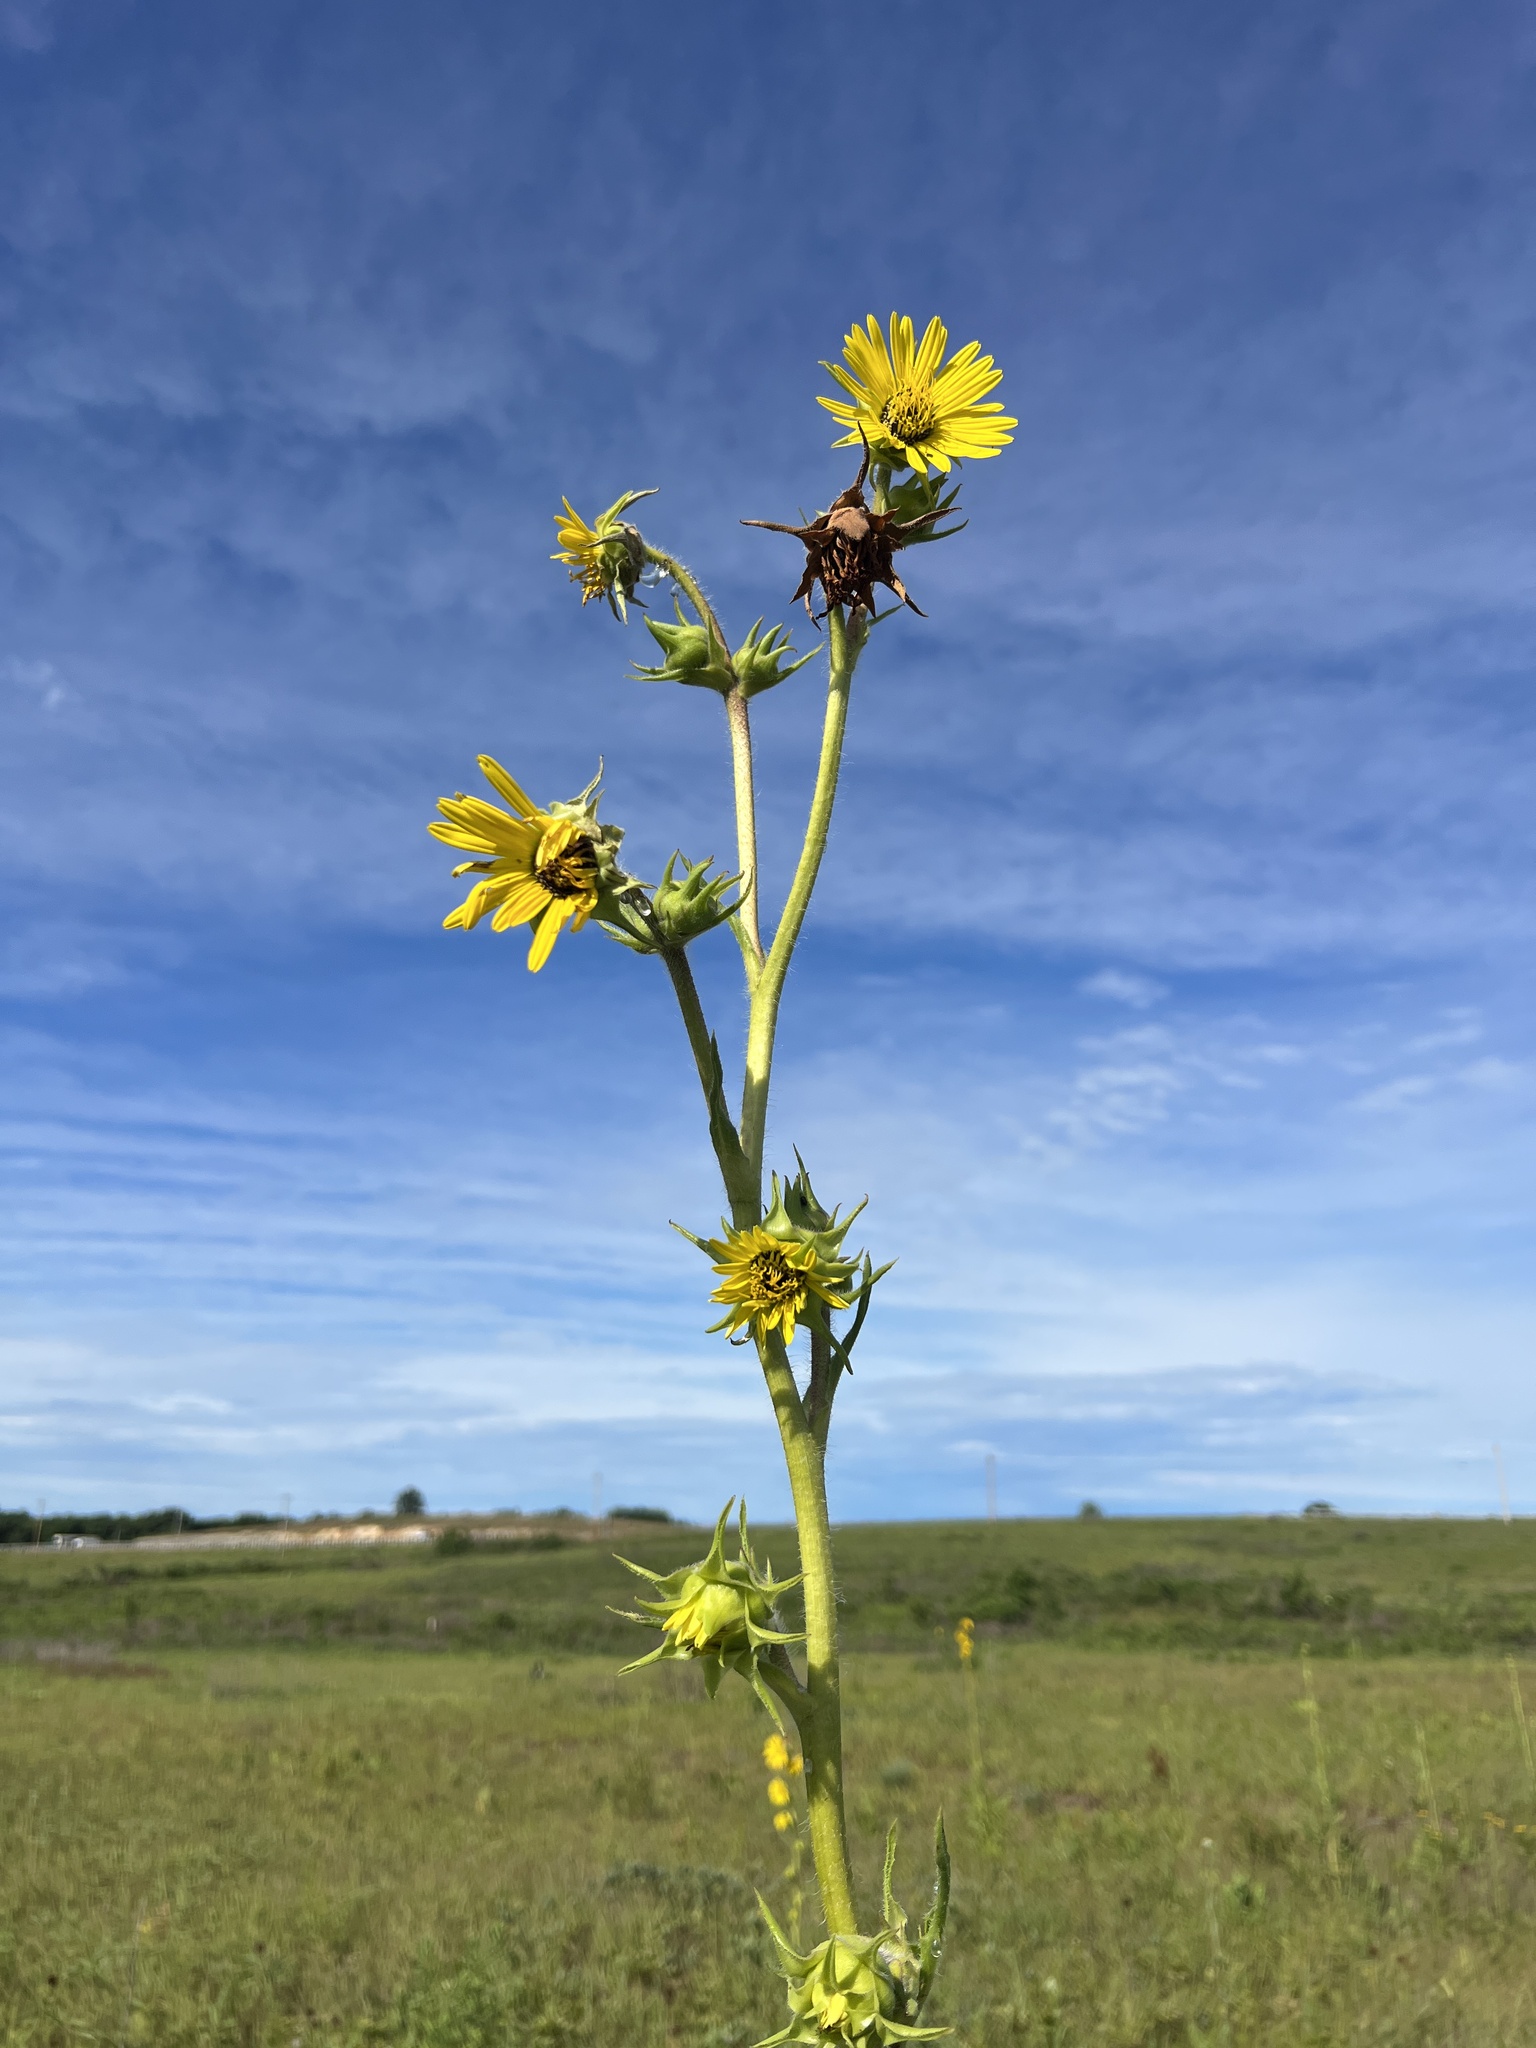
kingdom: Plantae
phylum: Tracheophyta
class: Magnoliopsida
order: Asterales
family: Asteraceae
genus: Silphium
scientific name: Silphium laciniatum
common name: Polarplant
